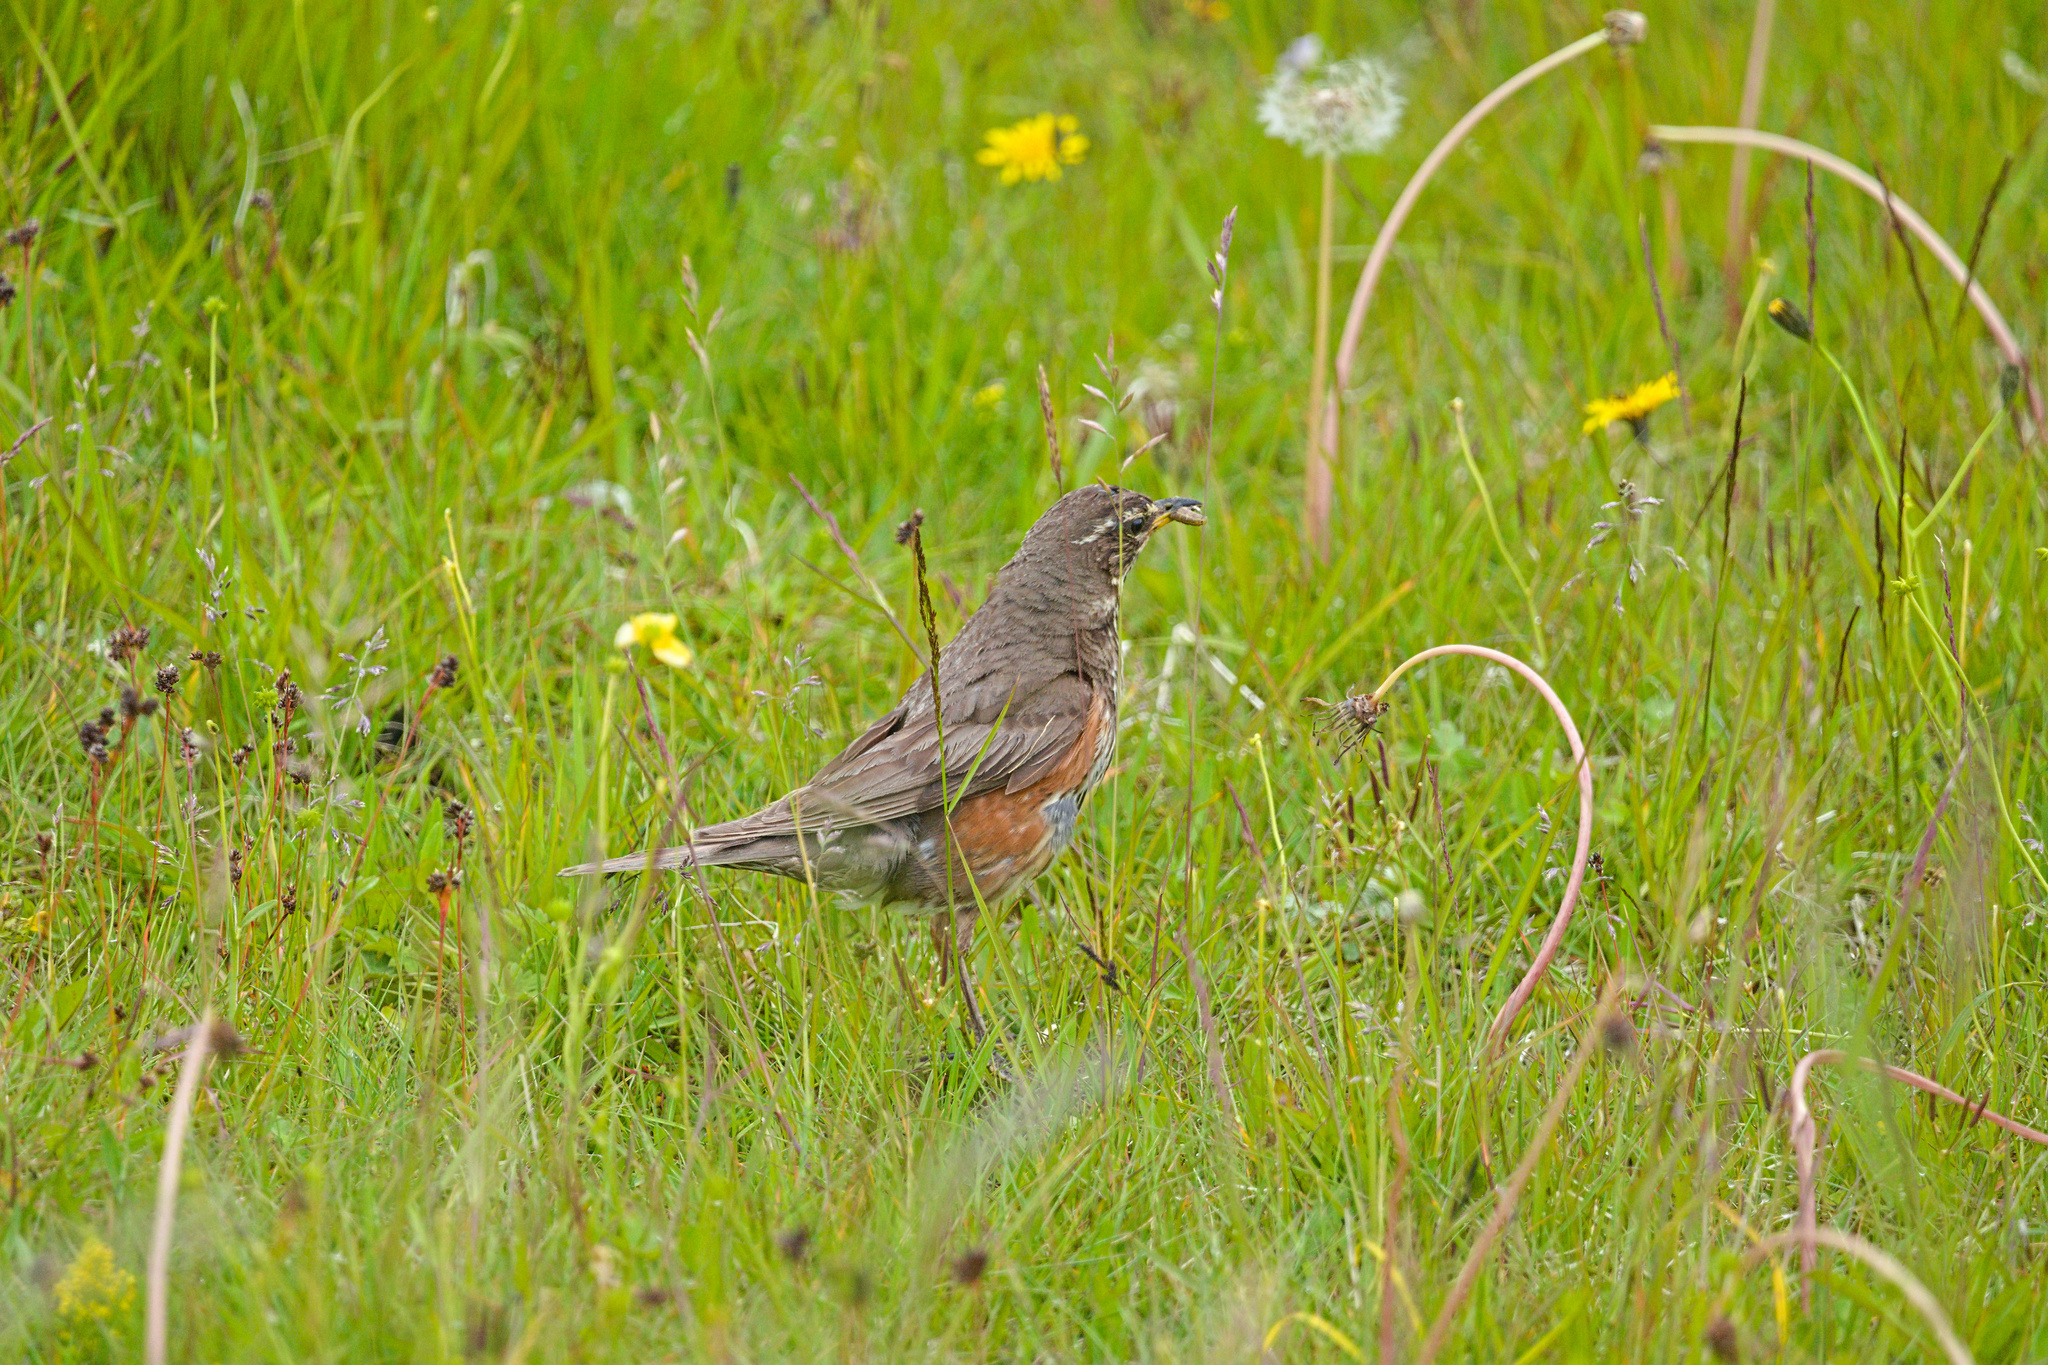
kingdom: Animalia
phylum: Chordata
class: Aves
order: Passeriformes
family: Turdidae
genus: Turdus
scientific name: Turdus iliacus
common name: Redwing
